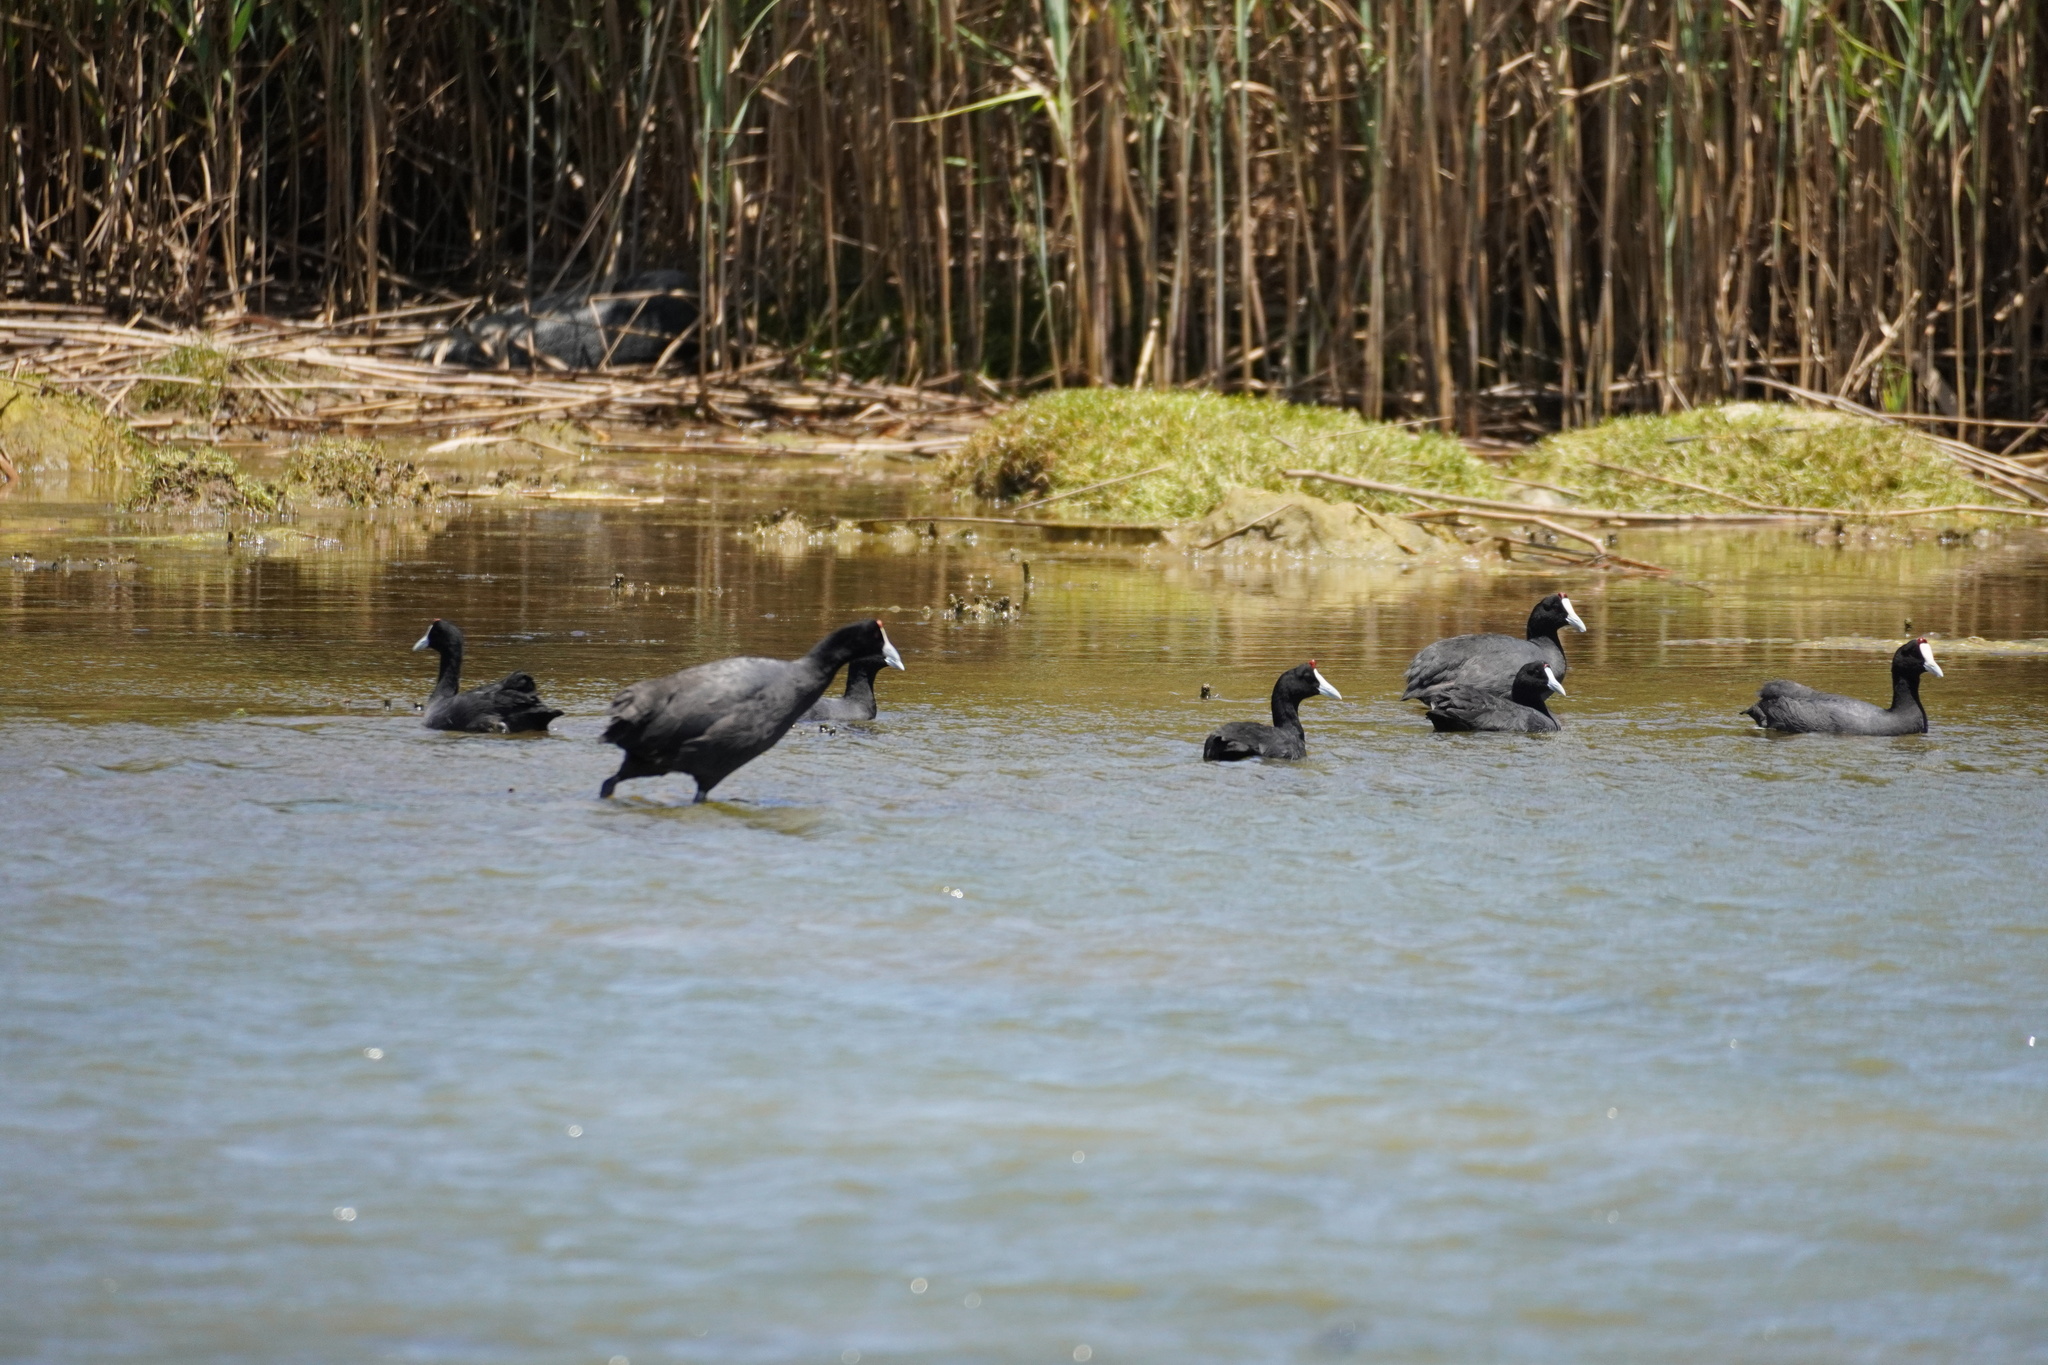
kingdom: Animalia
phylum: Chordata
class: Aves
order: Gruiformes
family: Rallidae
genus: Fulica
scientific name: Fulica cristata
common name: Red-knobbed coot
